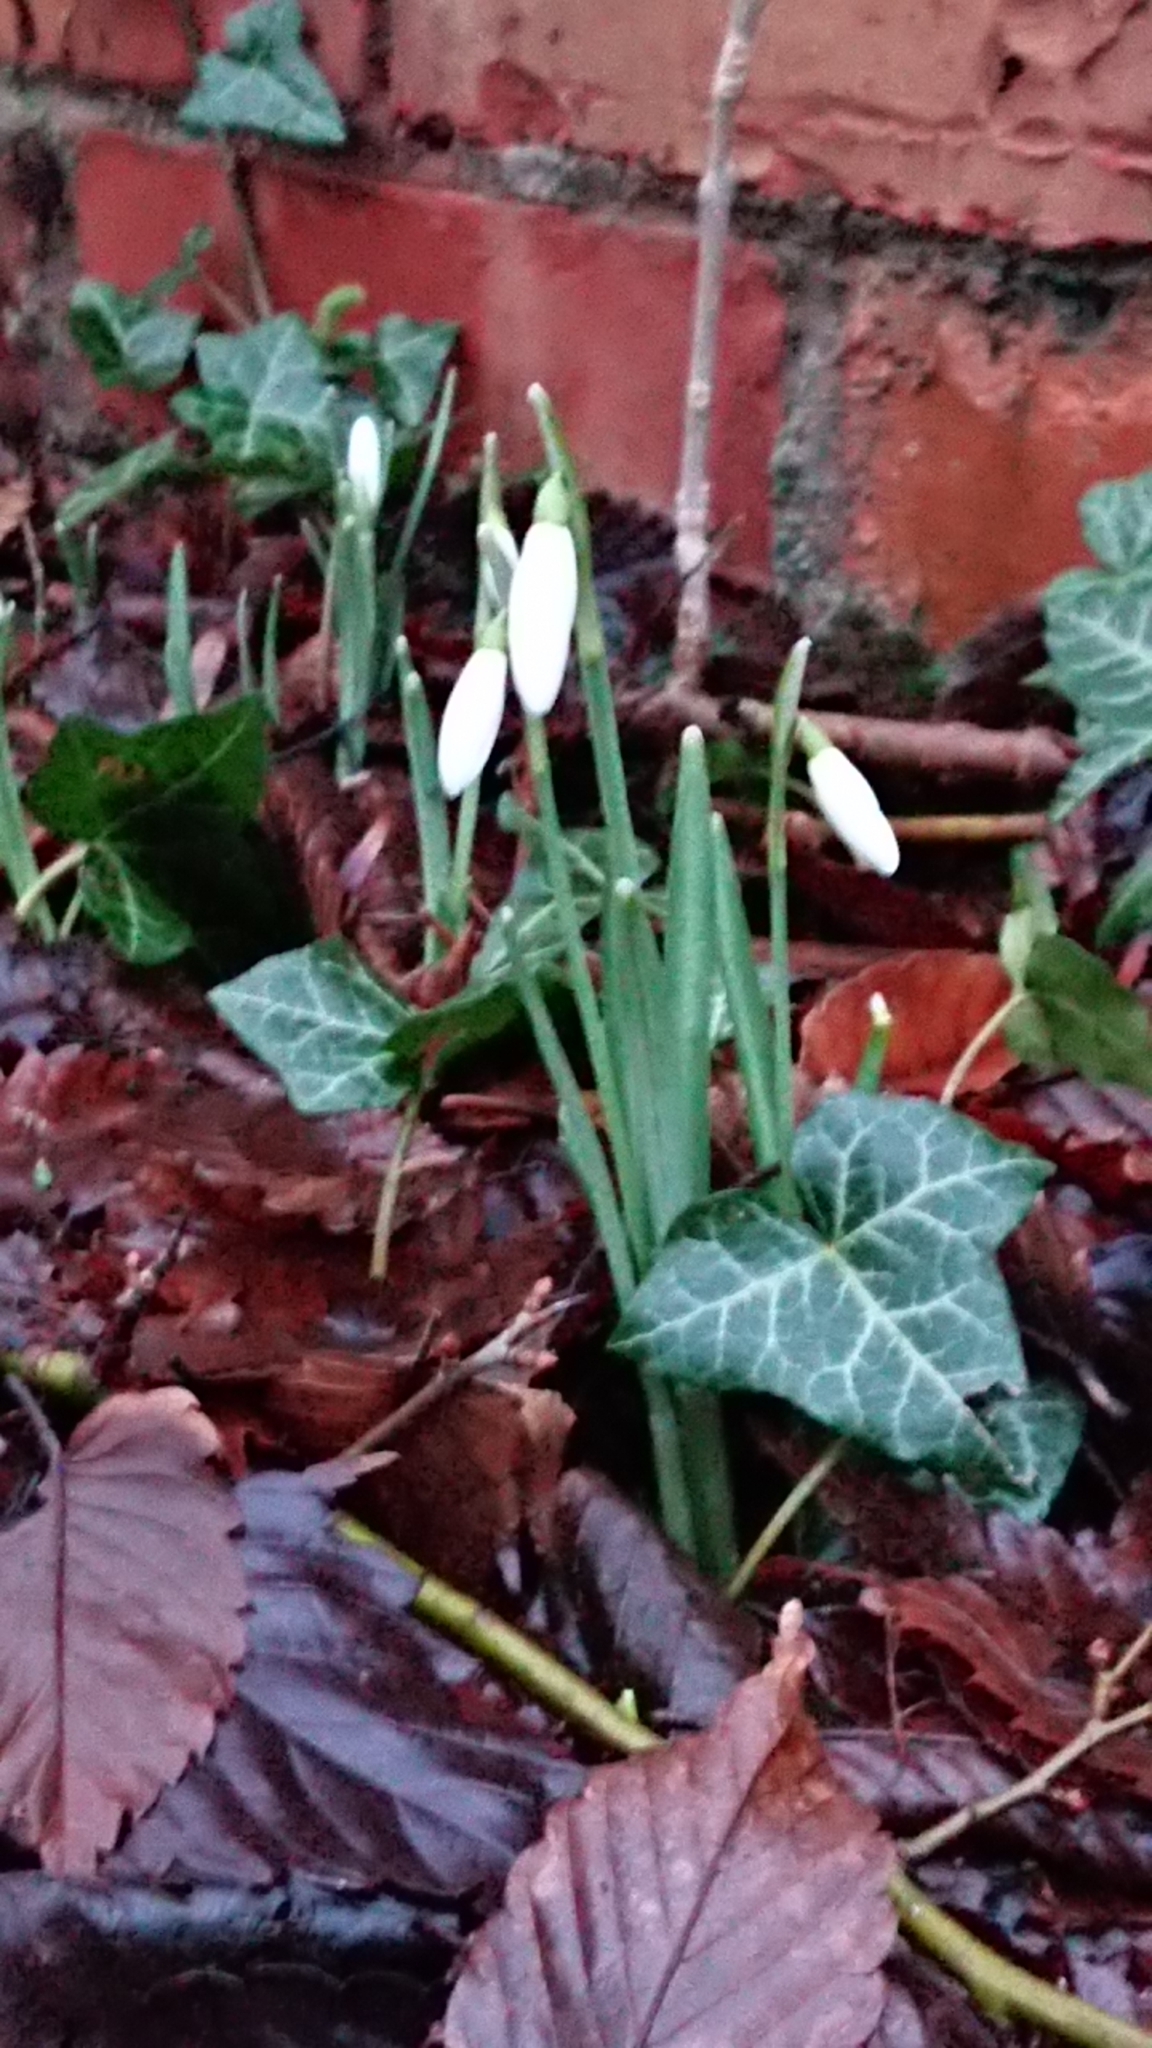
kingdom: Plantae
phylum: Tracheophyta
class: Liliopsida
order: Asparagales
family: Amaryllidaceae
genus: Galanthus
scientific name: Galanthus nivalis
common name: Snowdrop
